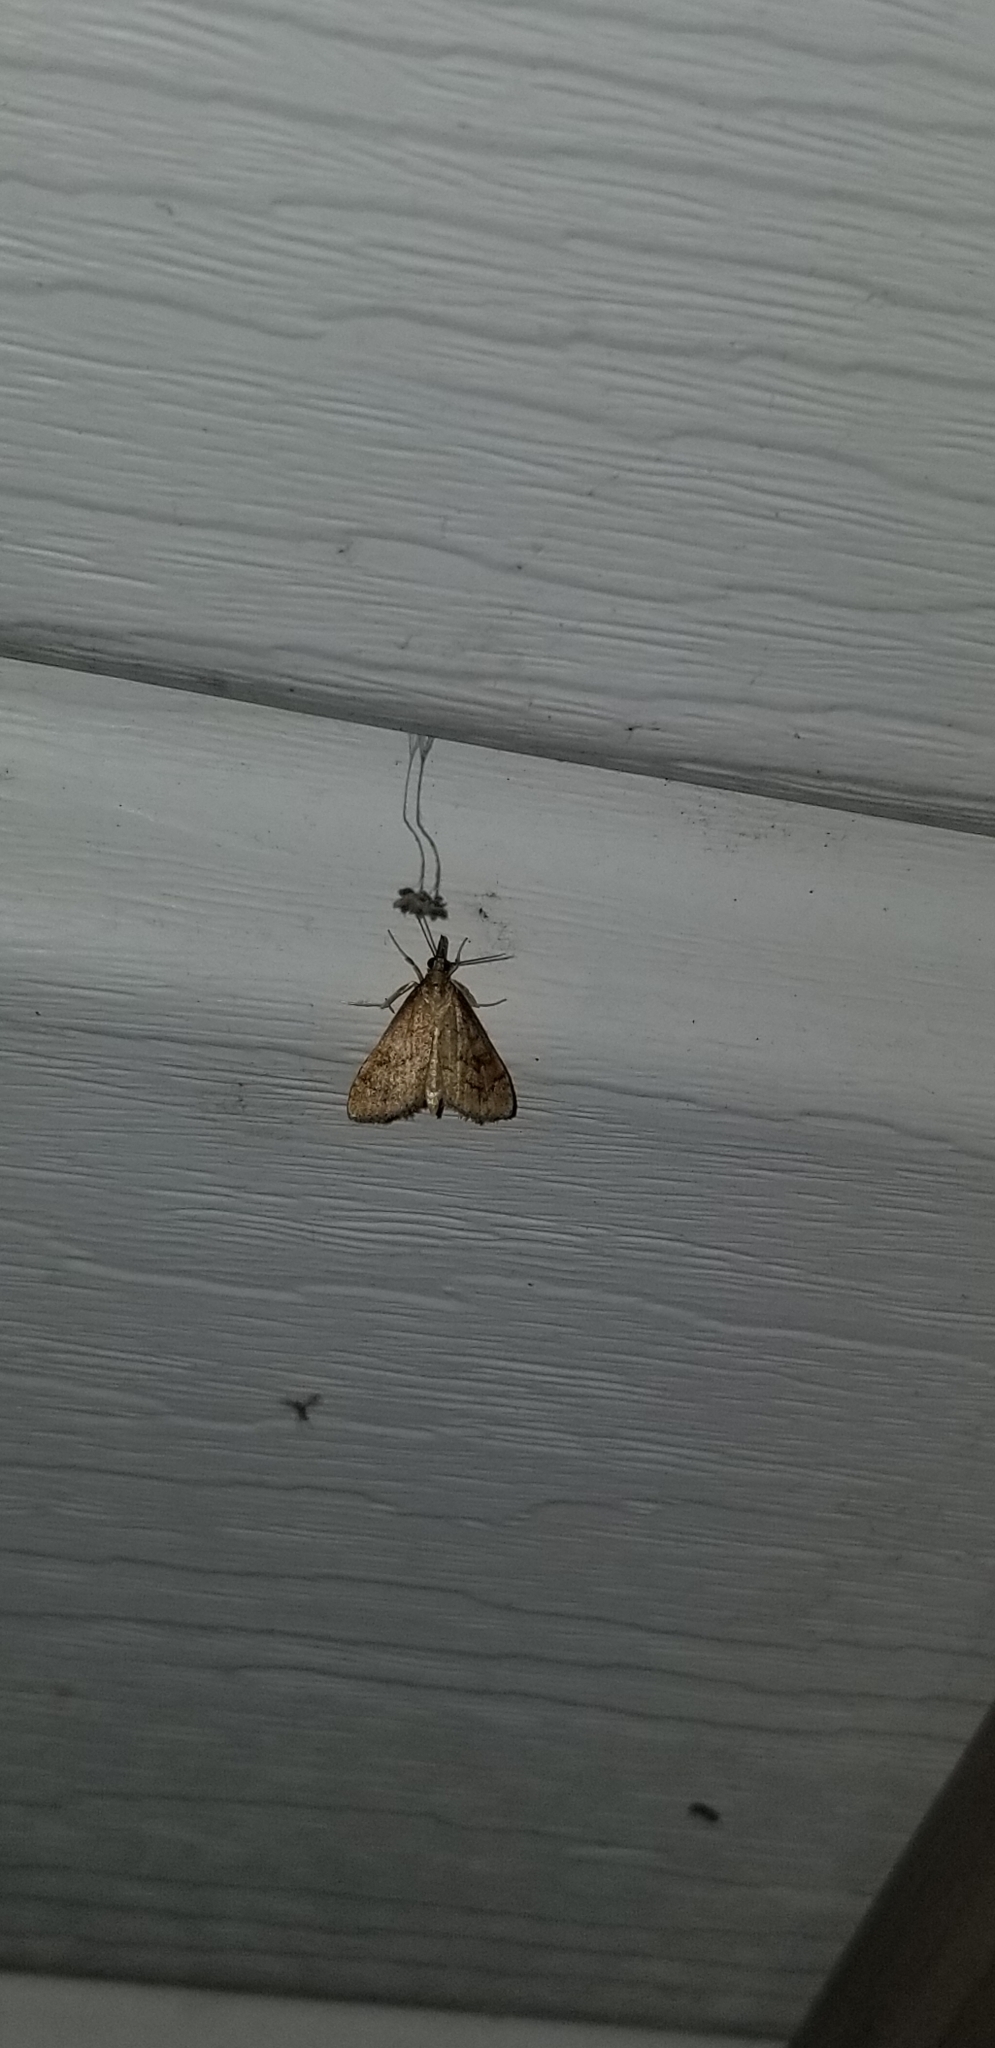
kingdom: Animalia
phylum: Arthropoda
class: Insecta
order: Lepidoptera
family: Crambidae
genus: Udea
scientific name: Udea rubigalis
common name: Celery leaftier moth
